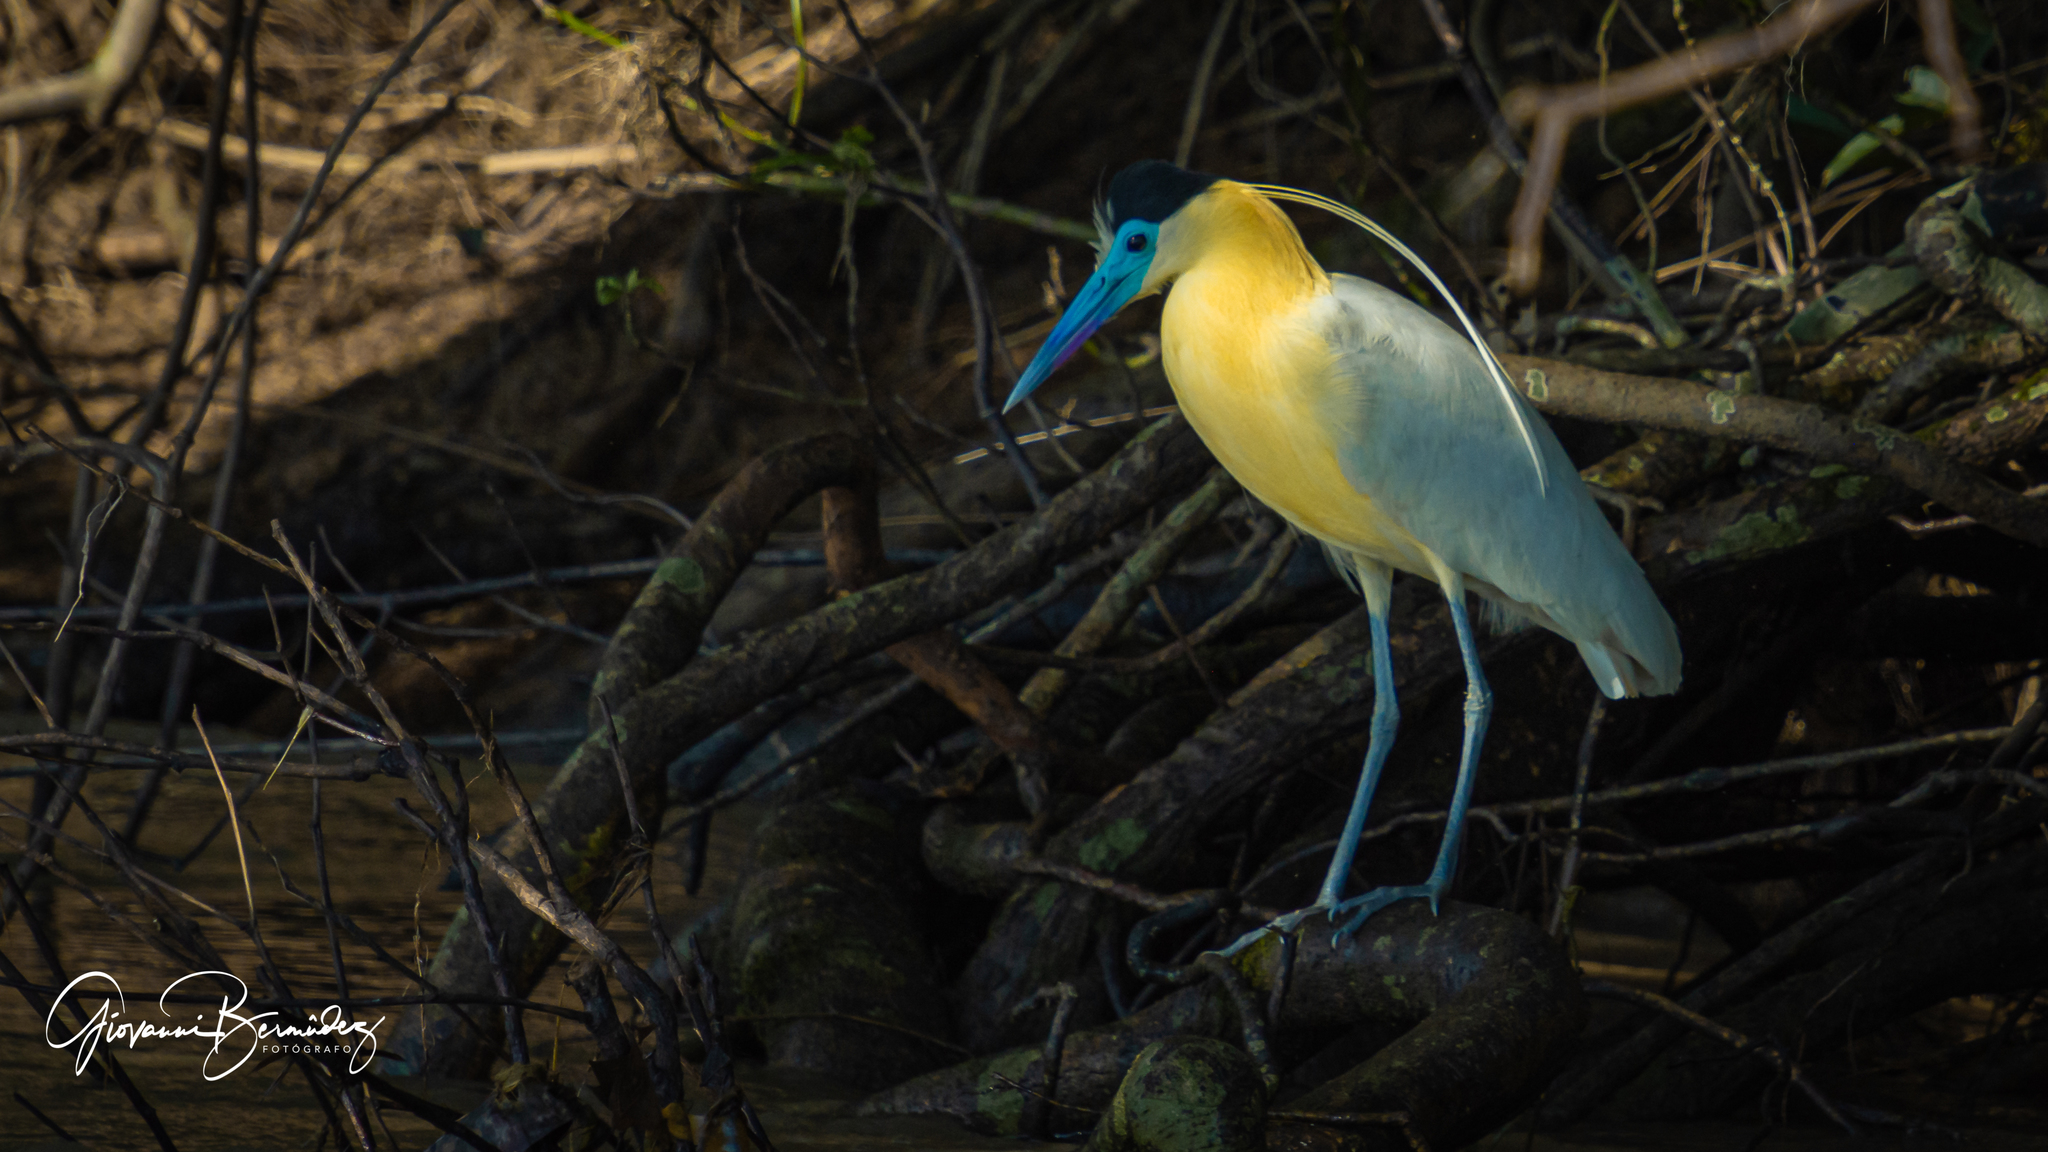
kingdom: Animalia
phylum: Chordata
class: Aves
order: Pelecaniformes
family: Ardeidae
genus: Pilherodius
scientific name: Pilherodius pileatus
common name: Capped heron
